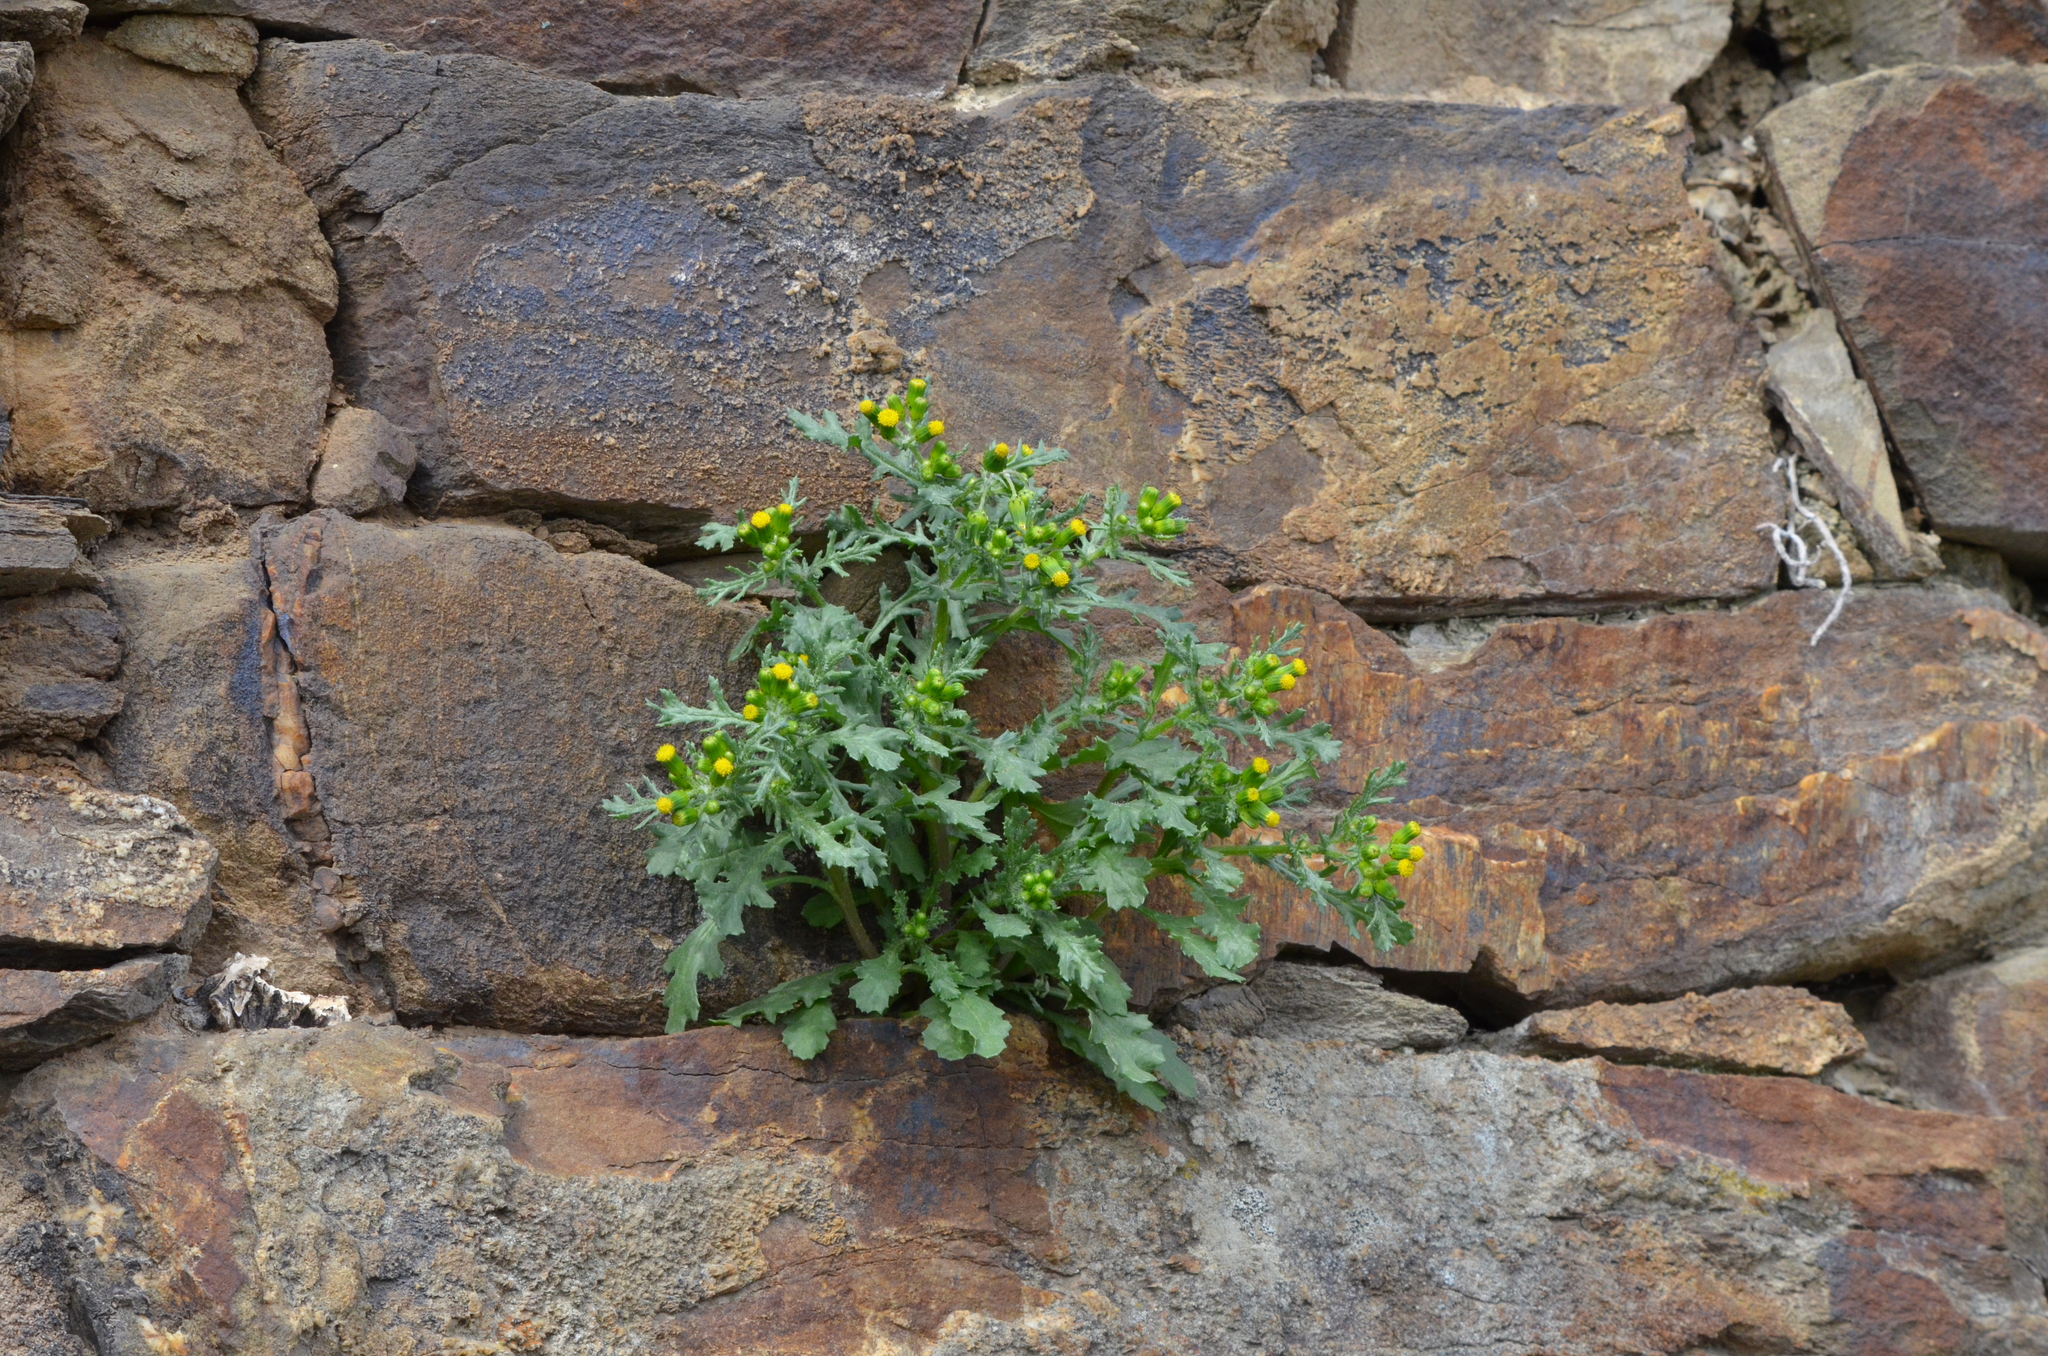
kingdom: Plantae
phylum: Tracheophyta
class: Magnoliopsida
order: Asterales
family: Asteraceae
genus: Senecio
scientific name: Senecio vulgaris
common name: Old-man-in-the-spring
